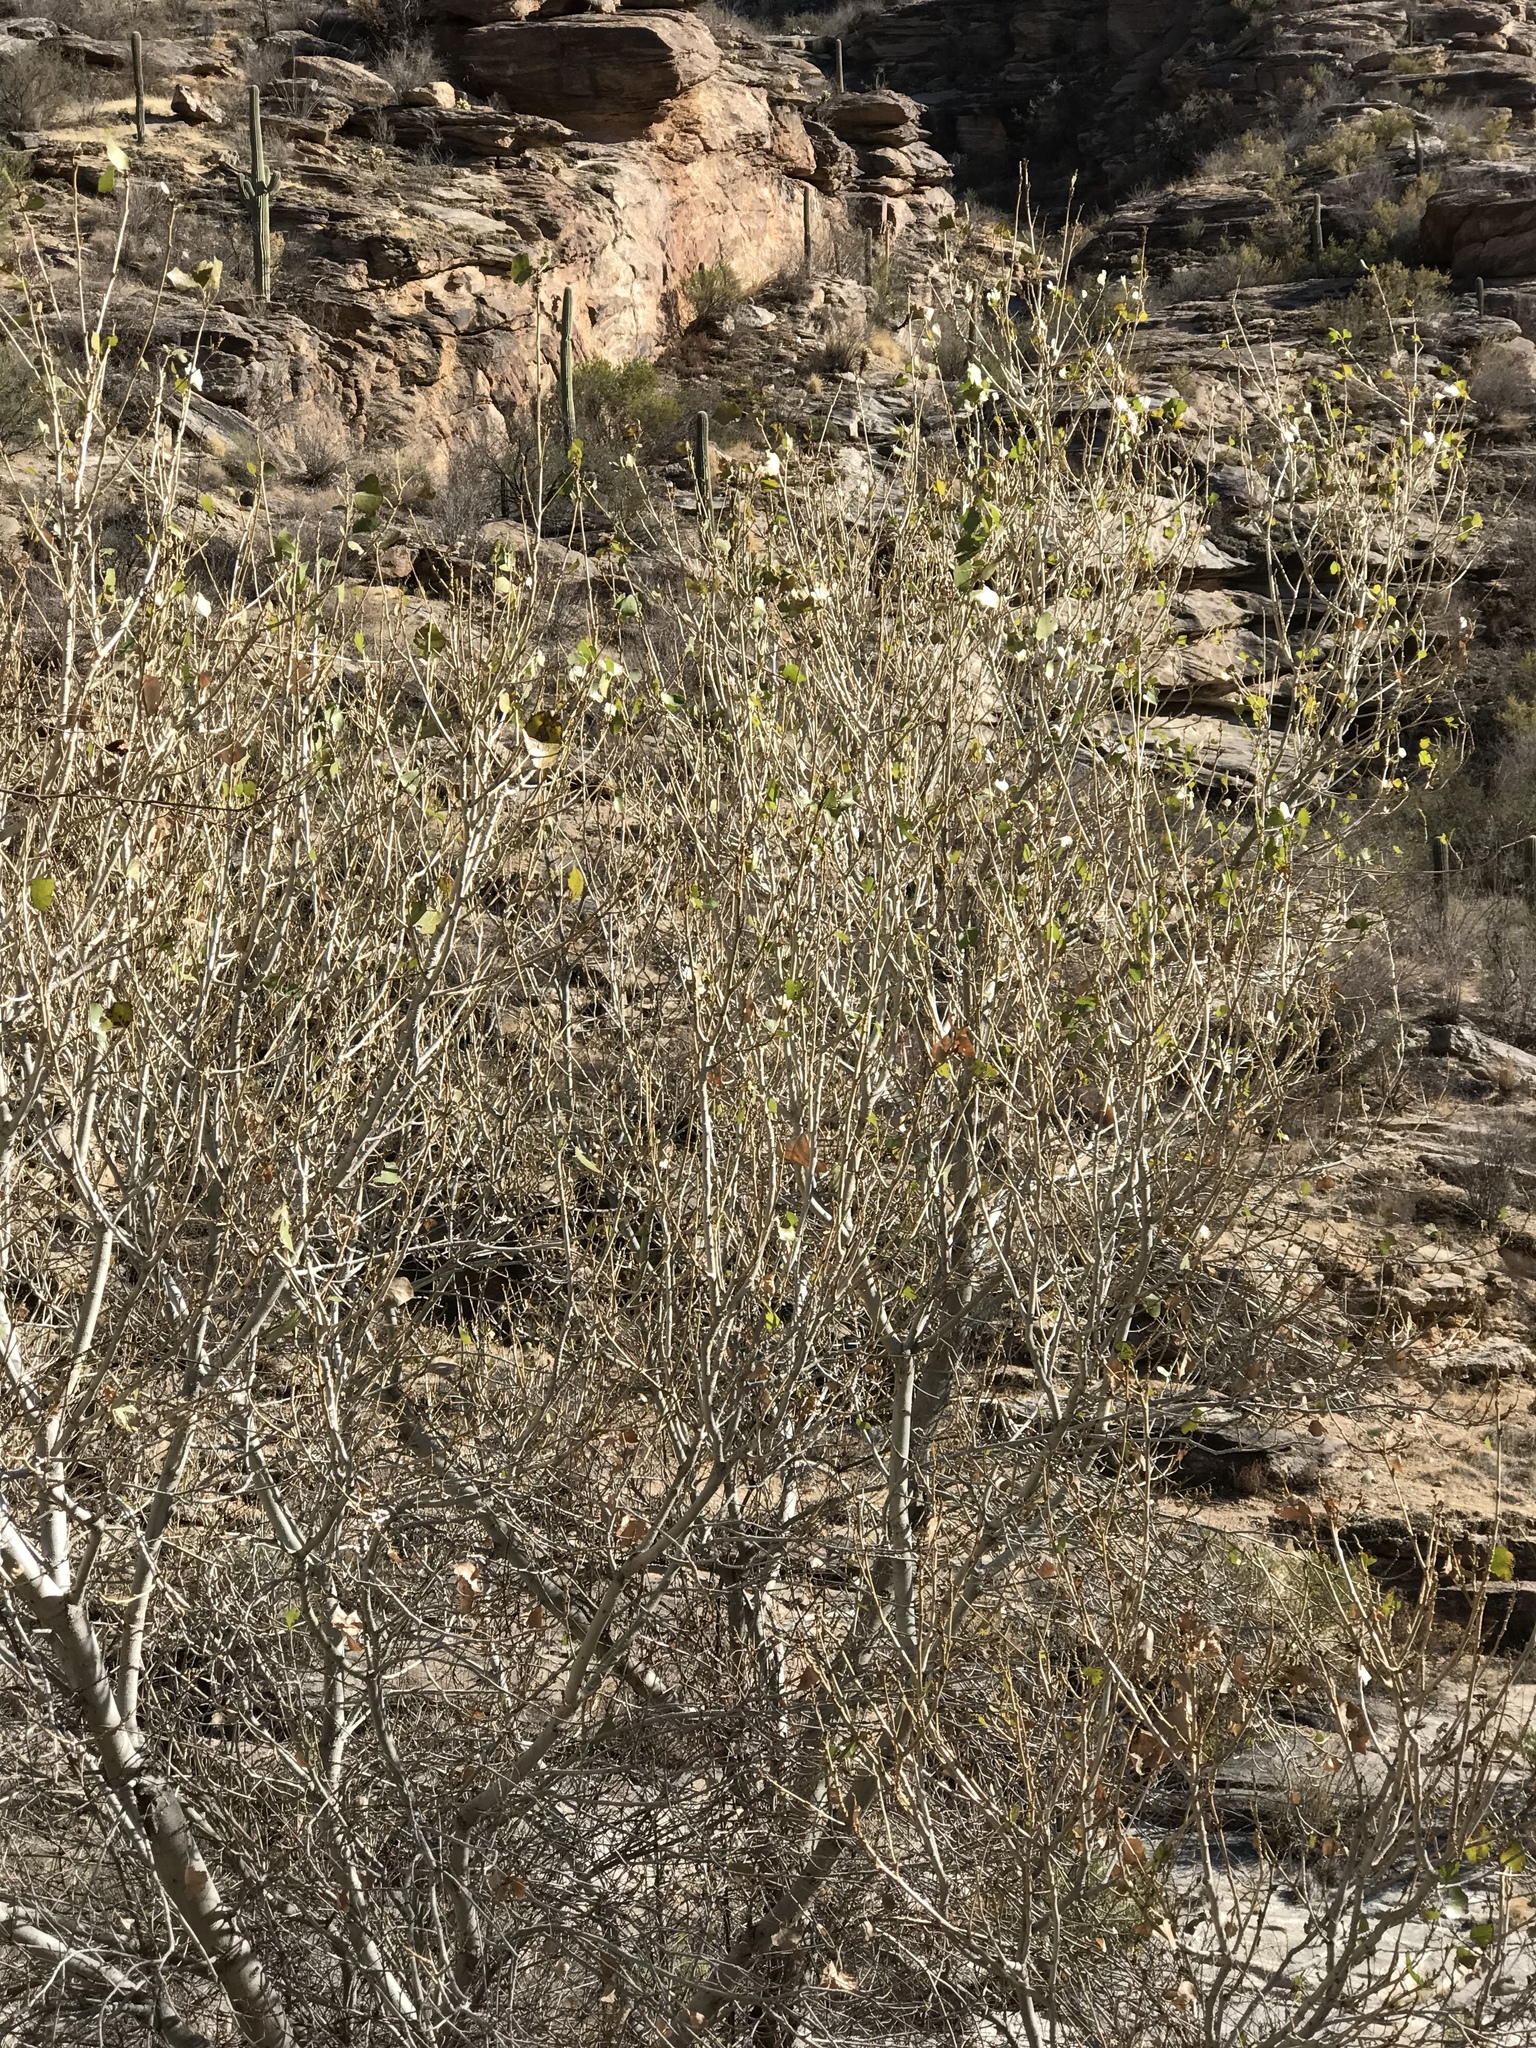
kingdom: Plantae
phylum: Tracheophyta
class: Magnoliopsida
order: Malpighiales
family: Salicaceae
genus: Populus
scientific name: Populus fremontii
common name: Fremont's cottonwood
